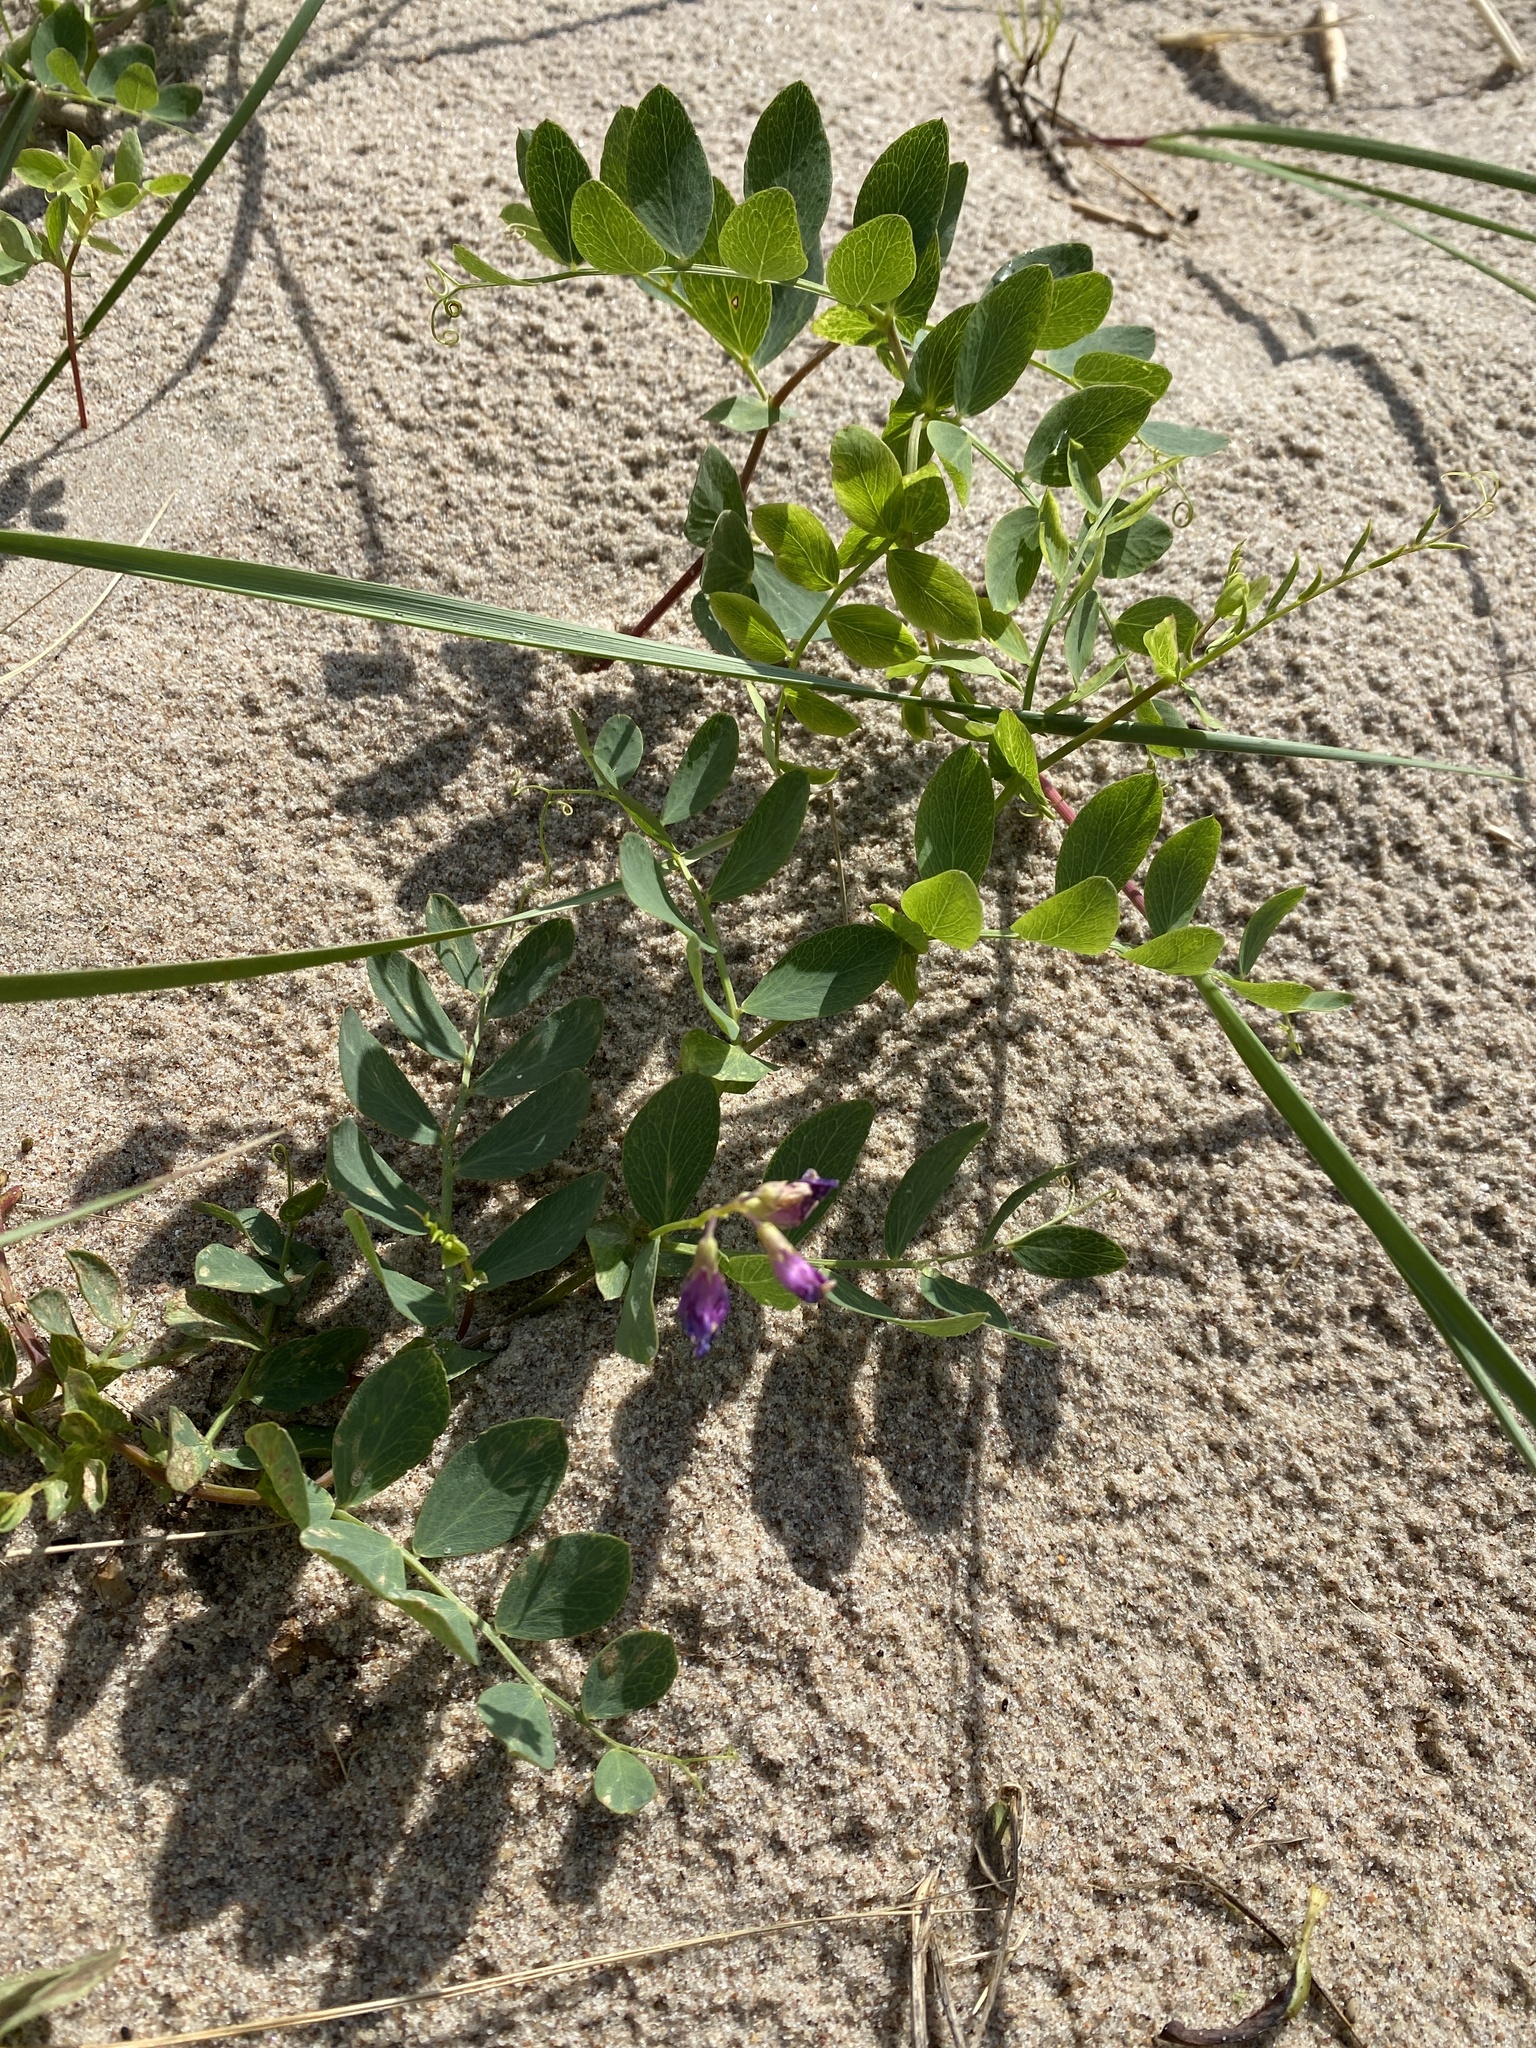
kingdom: Plantae
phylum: Tracheophyta
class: Magnoliopsida
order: Fabales
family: Fabaceae
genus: Lathyrus
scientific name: Lathyrus japonicus
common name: Sea pea
